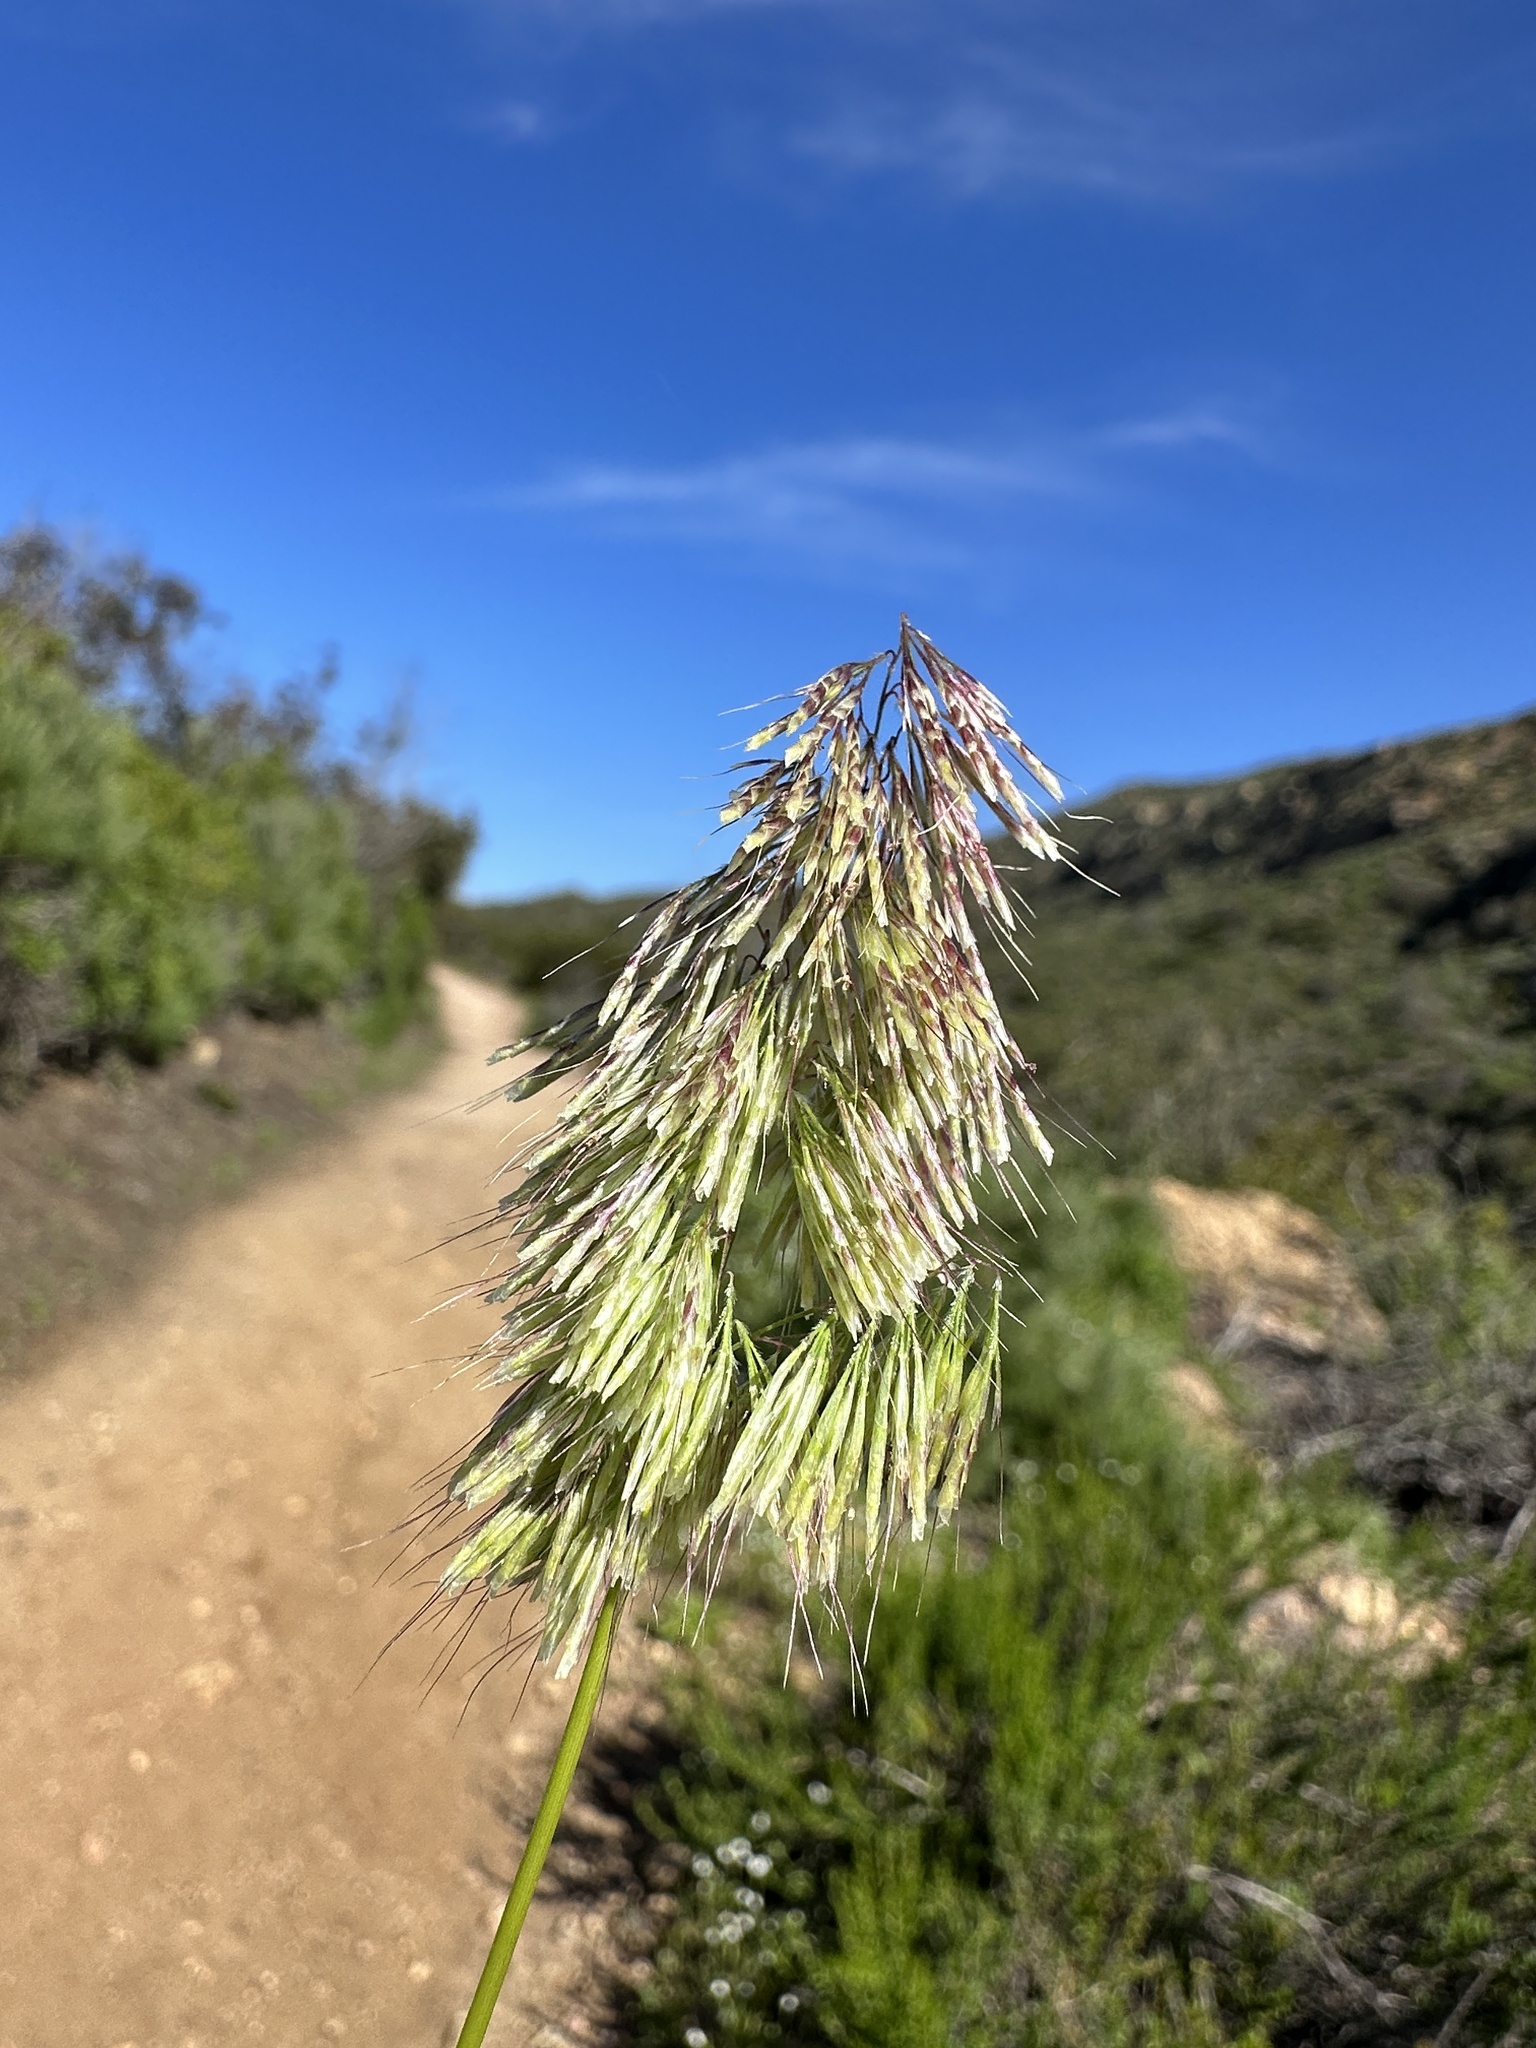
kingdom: Plantae
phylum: Tracheophyta
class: Liliopsida
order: Poales
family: Poaceae
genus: Lamarckia
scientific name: Lamarckia aurea
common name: Golden dog's-tail
